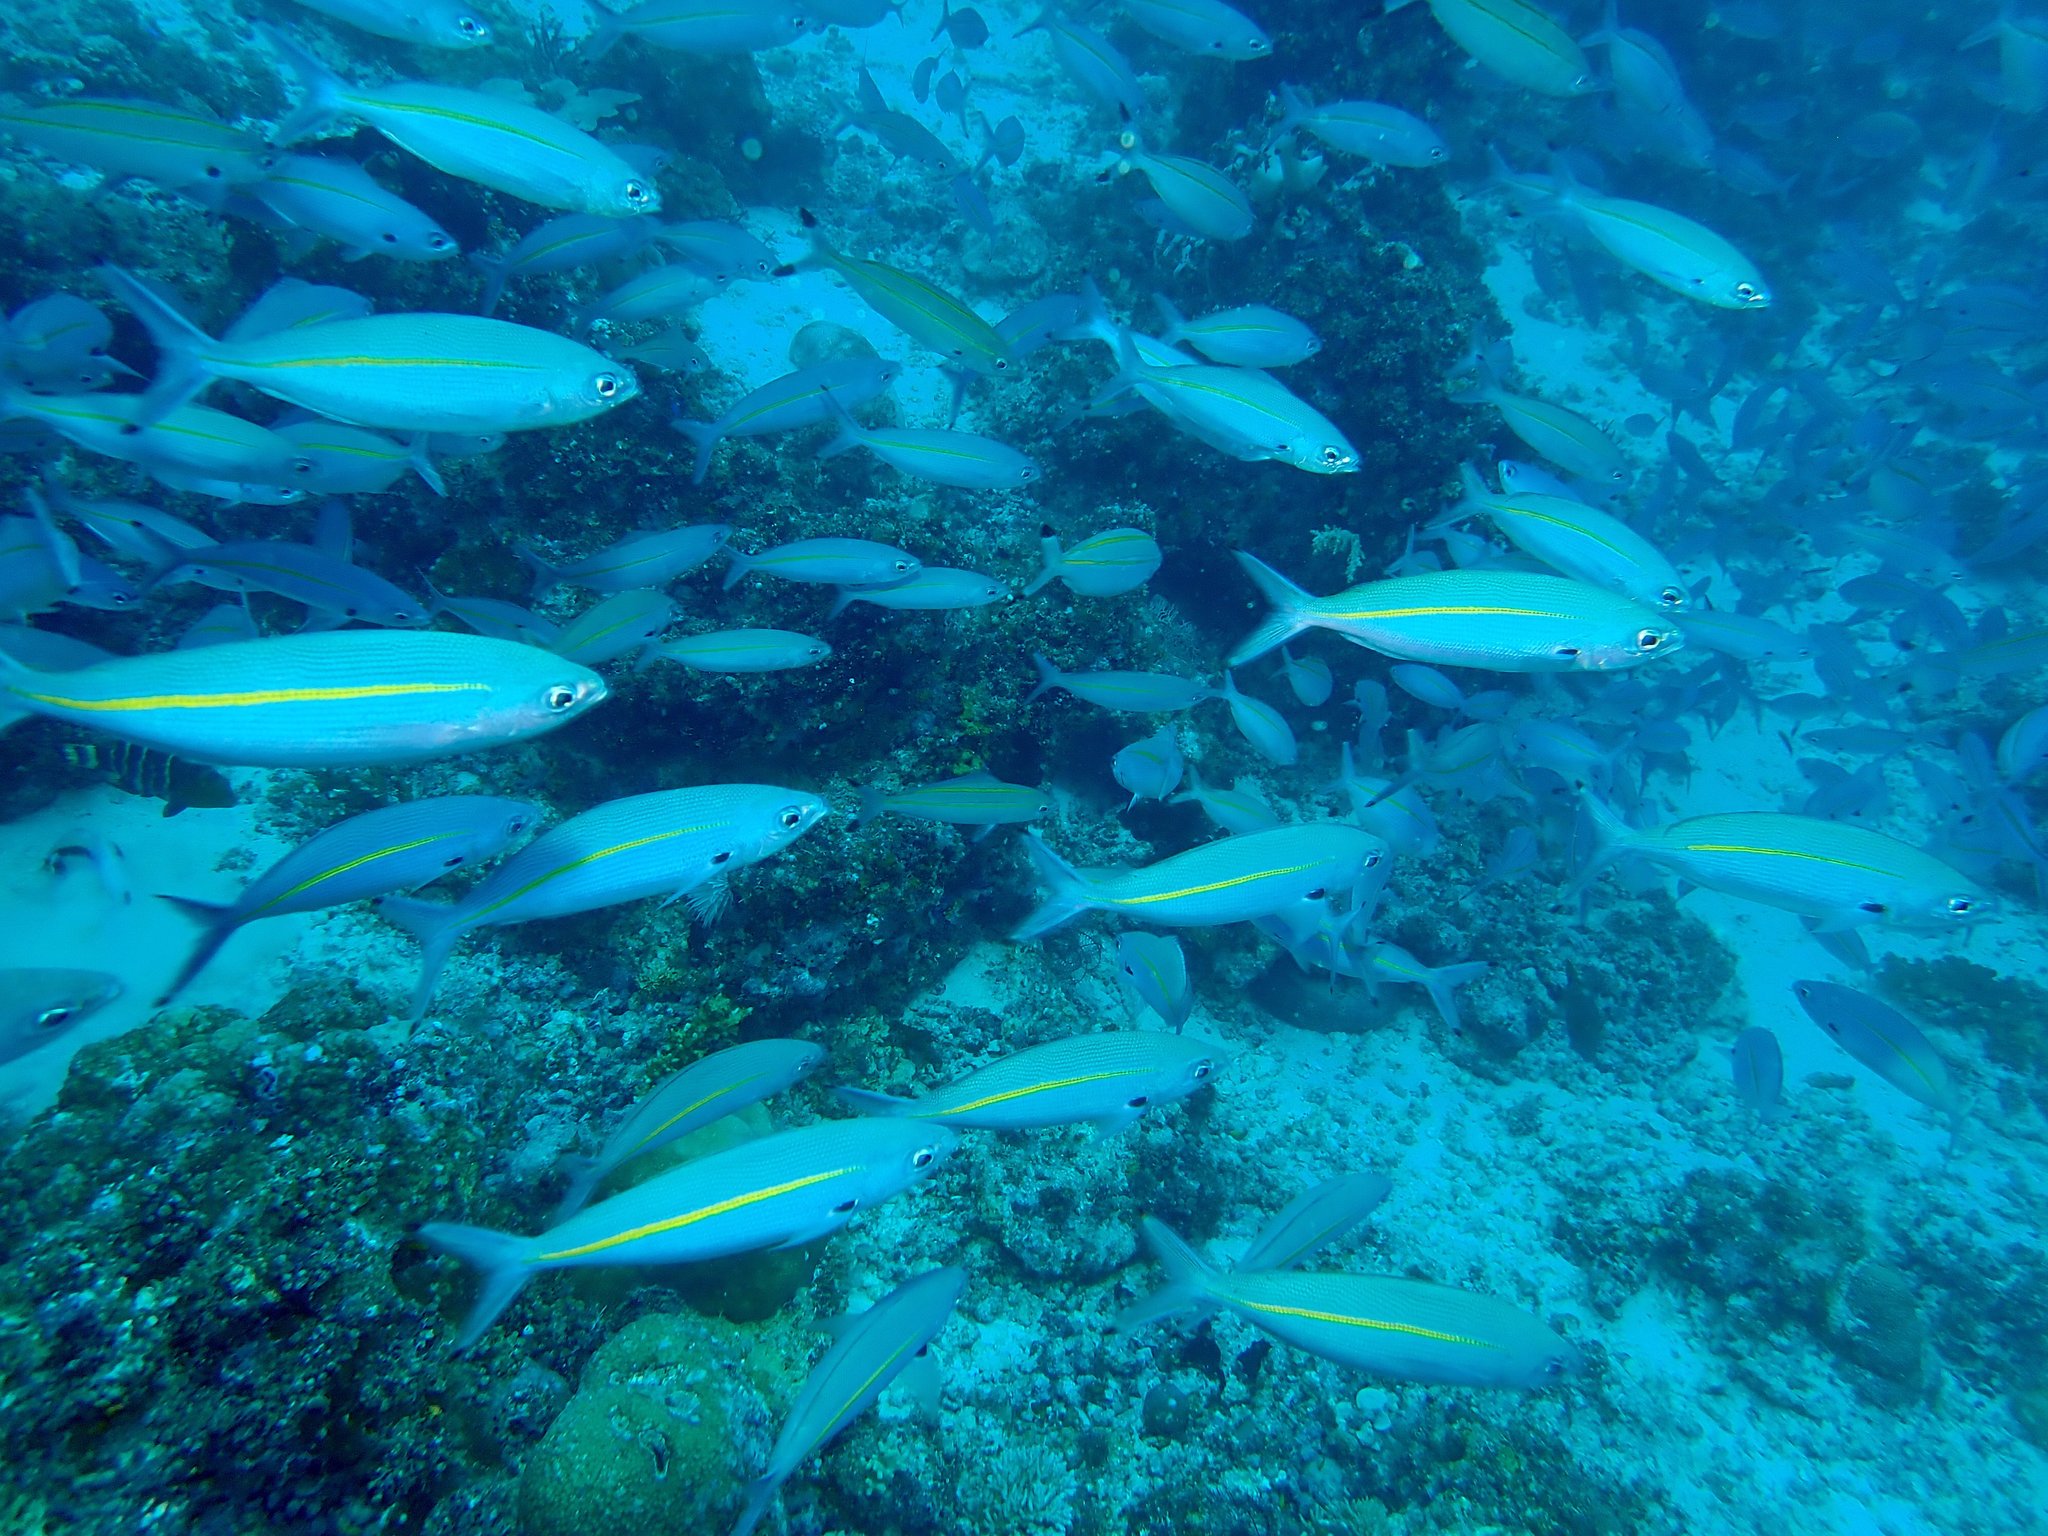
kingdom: Animalia
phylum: Chordata
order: Perciformes
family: Caesionidae
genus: Pterocaesio
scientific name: Pterocaesio tessellata
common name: One-stripe fusilier
